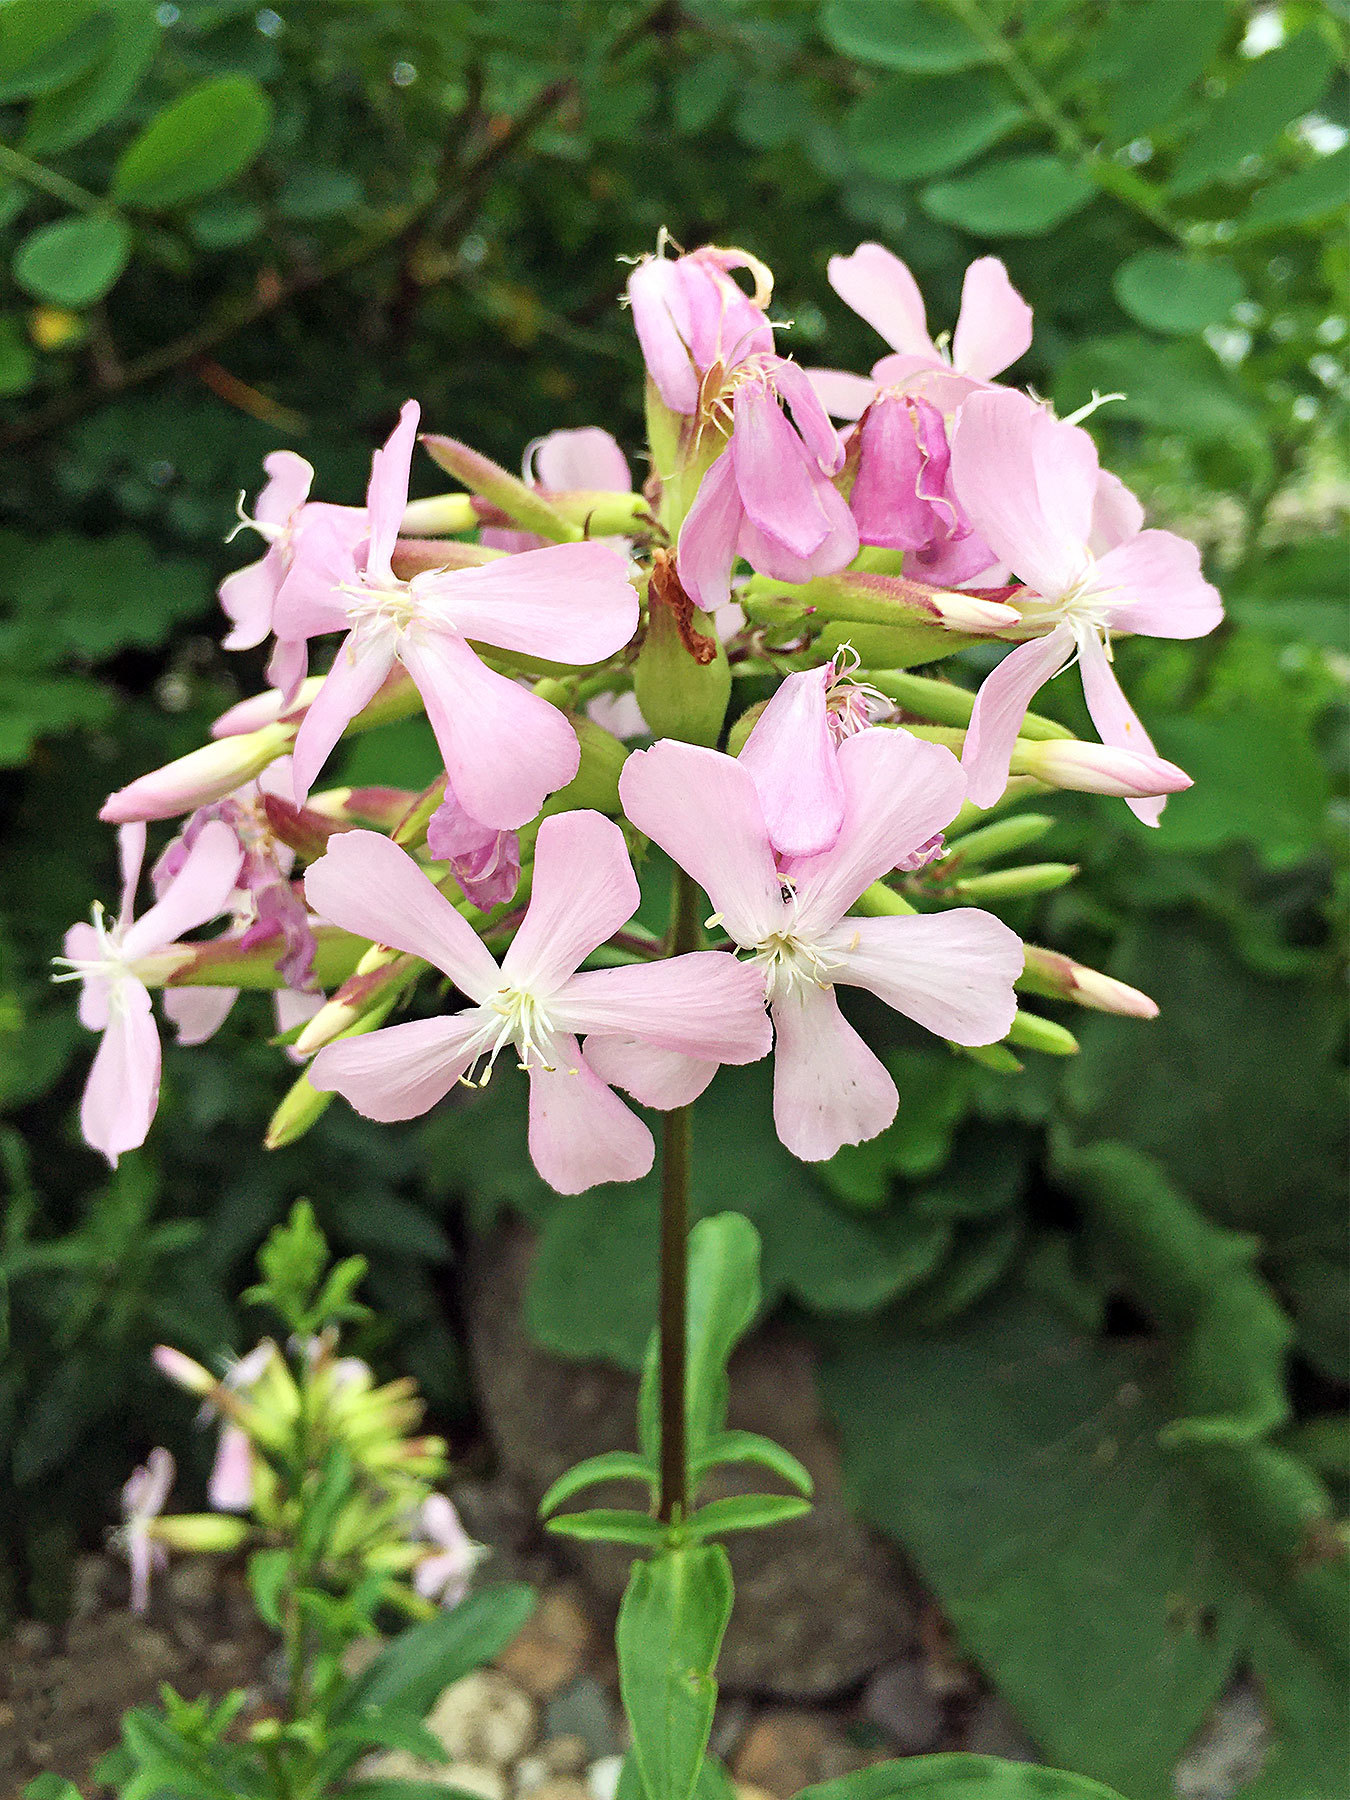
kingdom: Plantae
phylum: Tracheophyta
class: Magnoliopsida
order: Caryophyllales
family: Caryophyllaceae
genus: Saponaria
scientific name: Saponaria officinalis
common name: Soapwort
